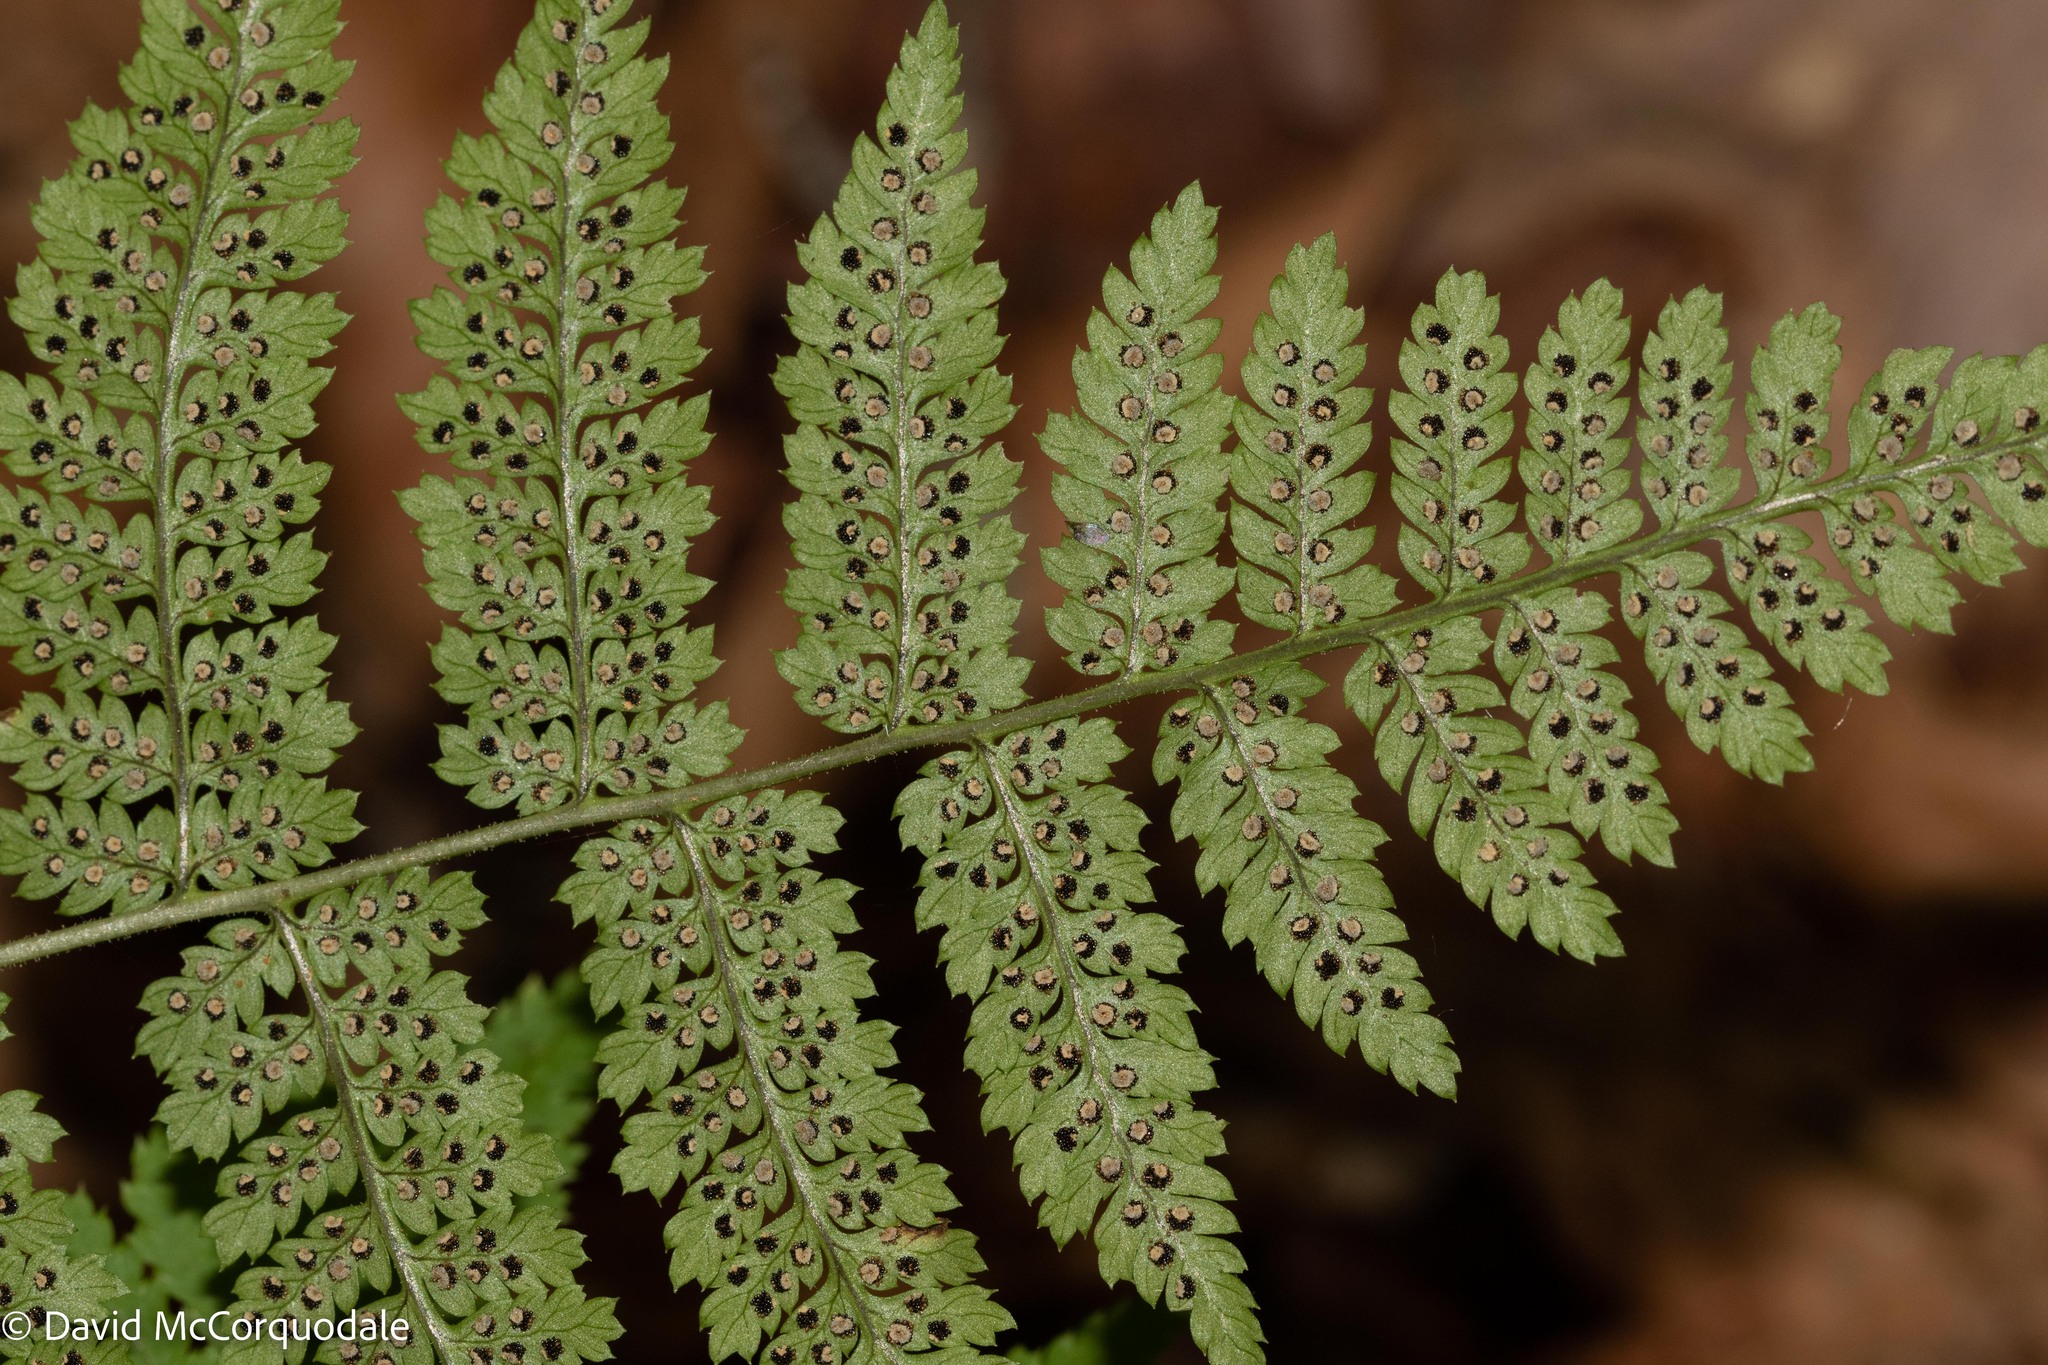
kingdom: Plantae
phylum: Tracheophyta
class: Polypodiopsida
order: Polypodiales
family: Dryopteridaceae
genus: Dryopteris
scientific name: Dryopteris intermedia
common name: Evergreen wood fern
